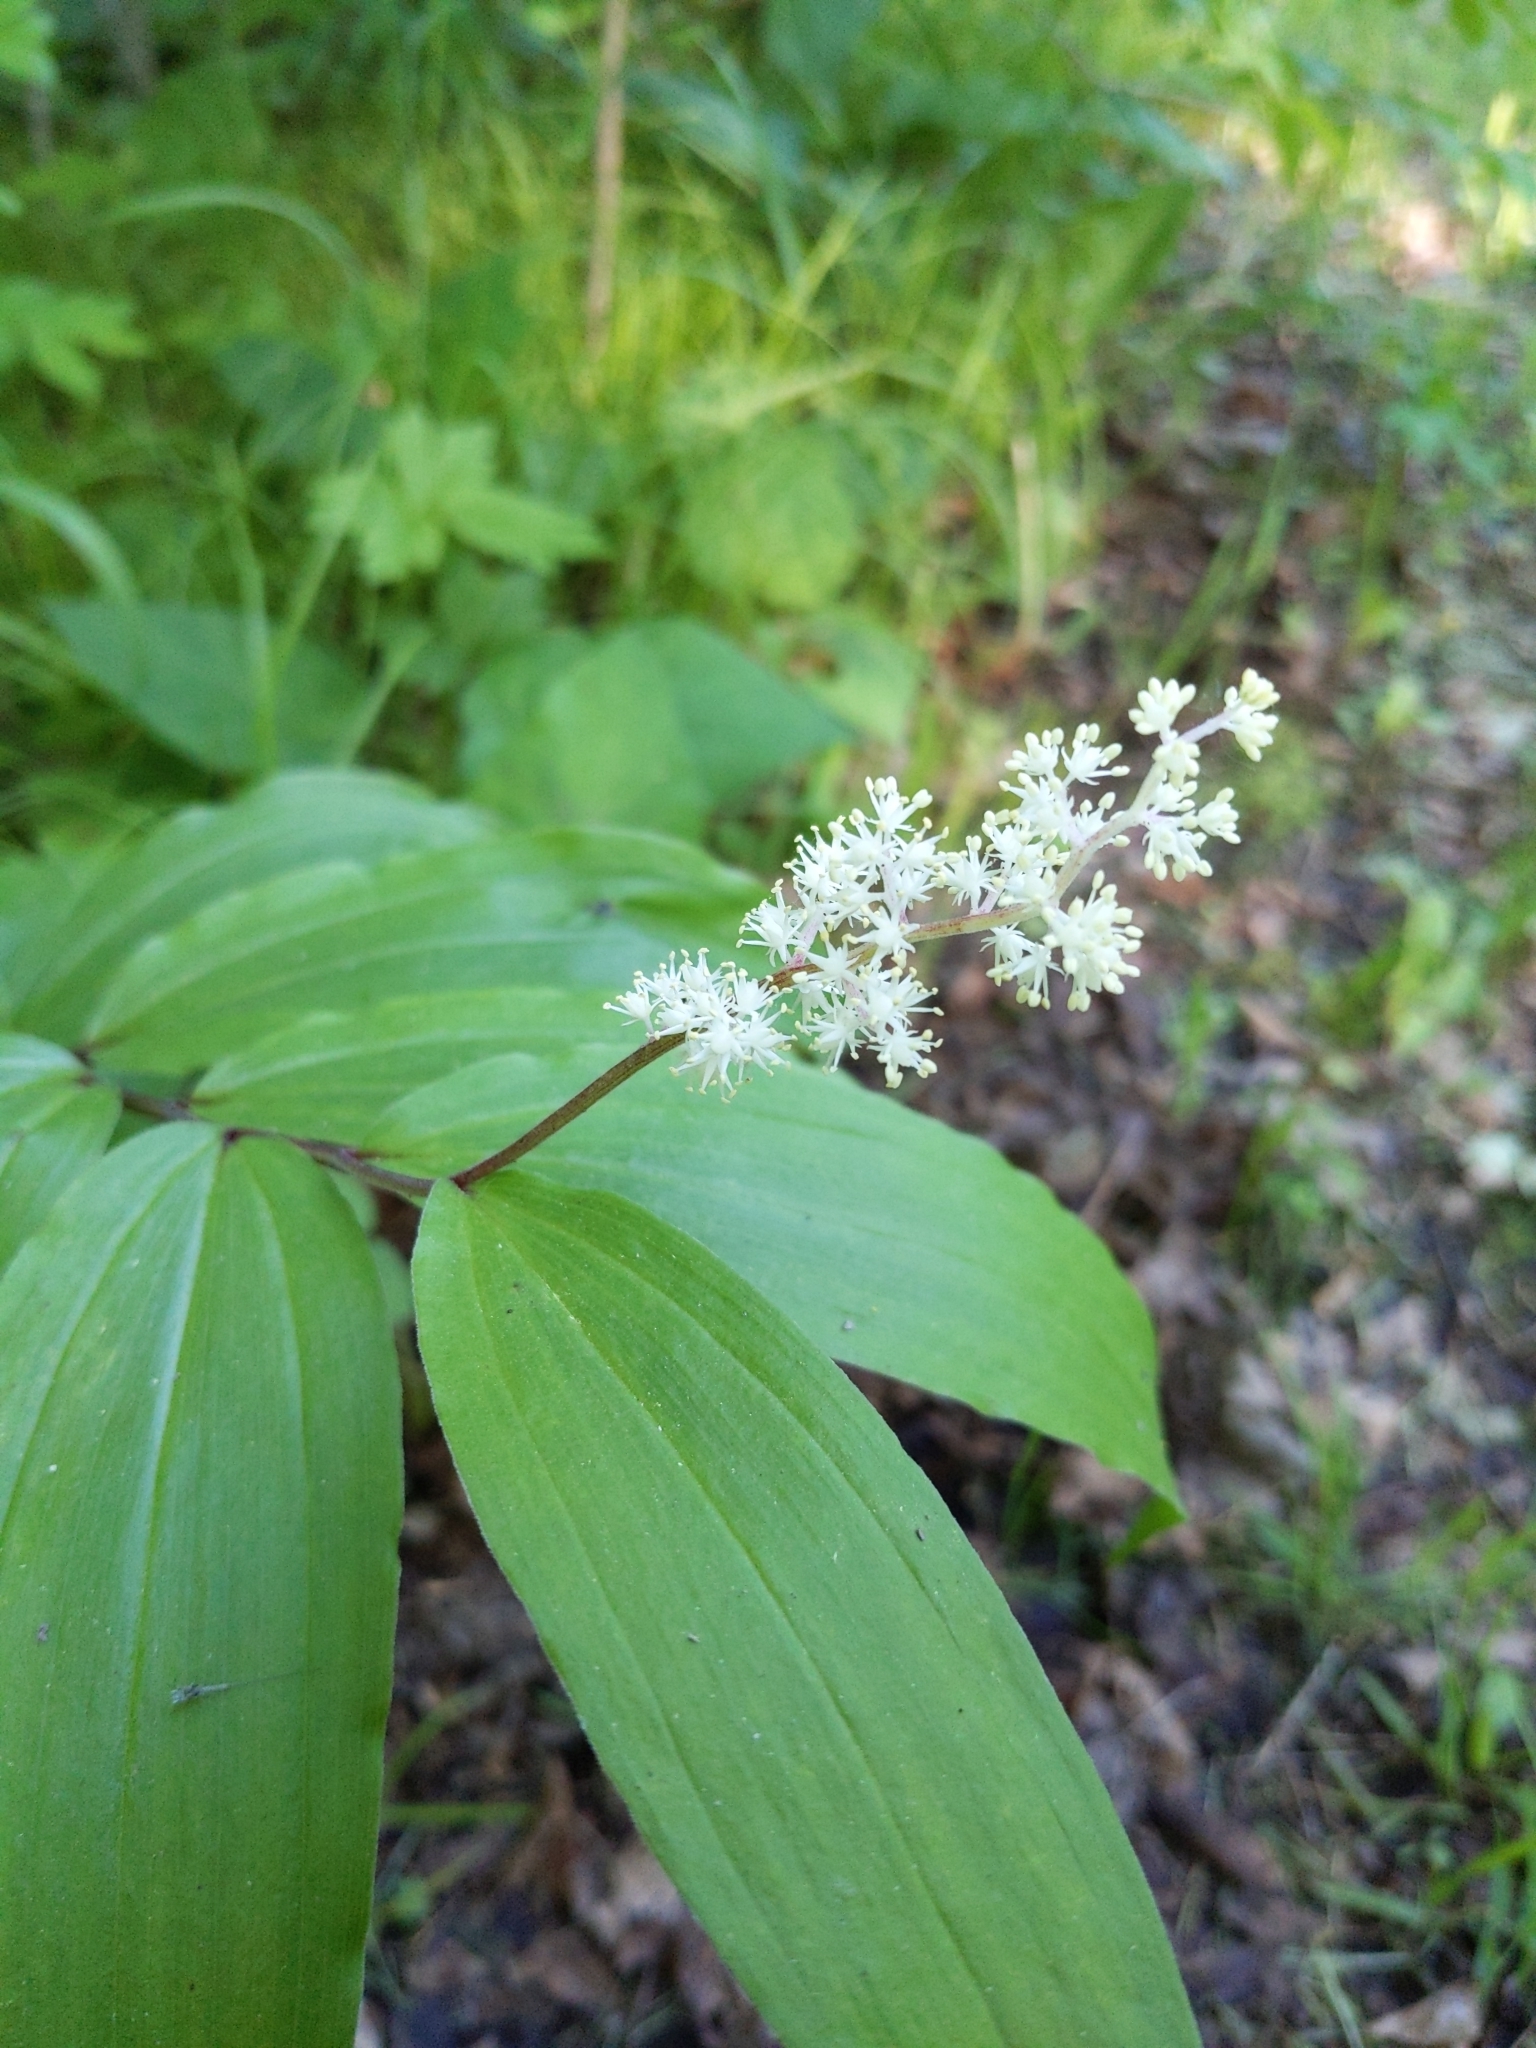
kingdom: Plantae
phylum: Tracheophyta
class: Liliopsida
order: Asparagales
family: Asparagaceae
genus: Maianthemum
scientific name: Maianthemum racemosum
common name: False spikenard
